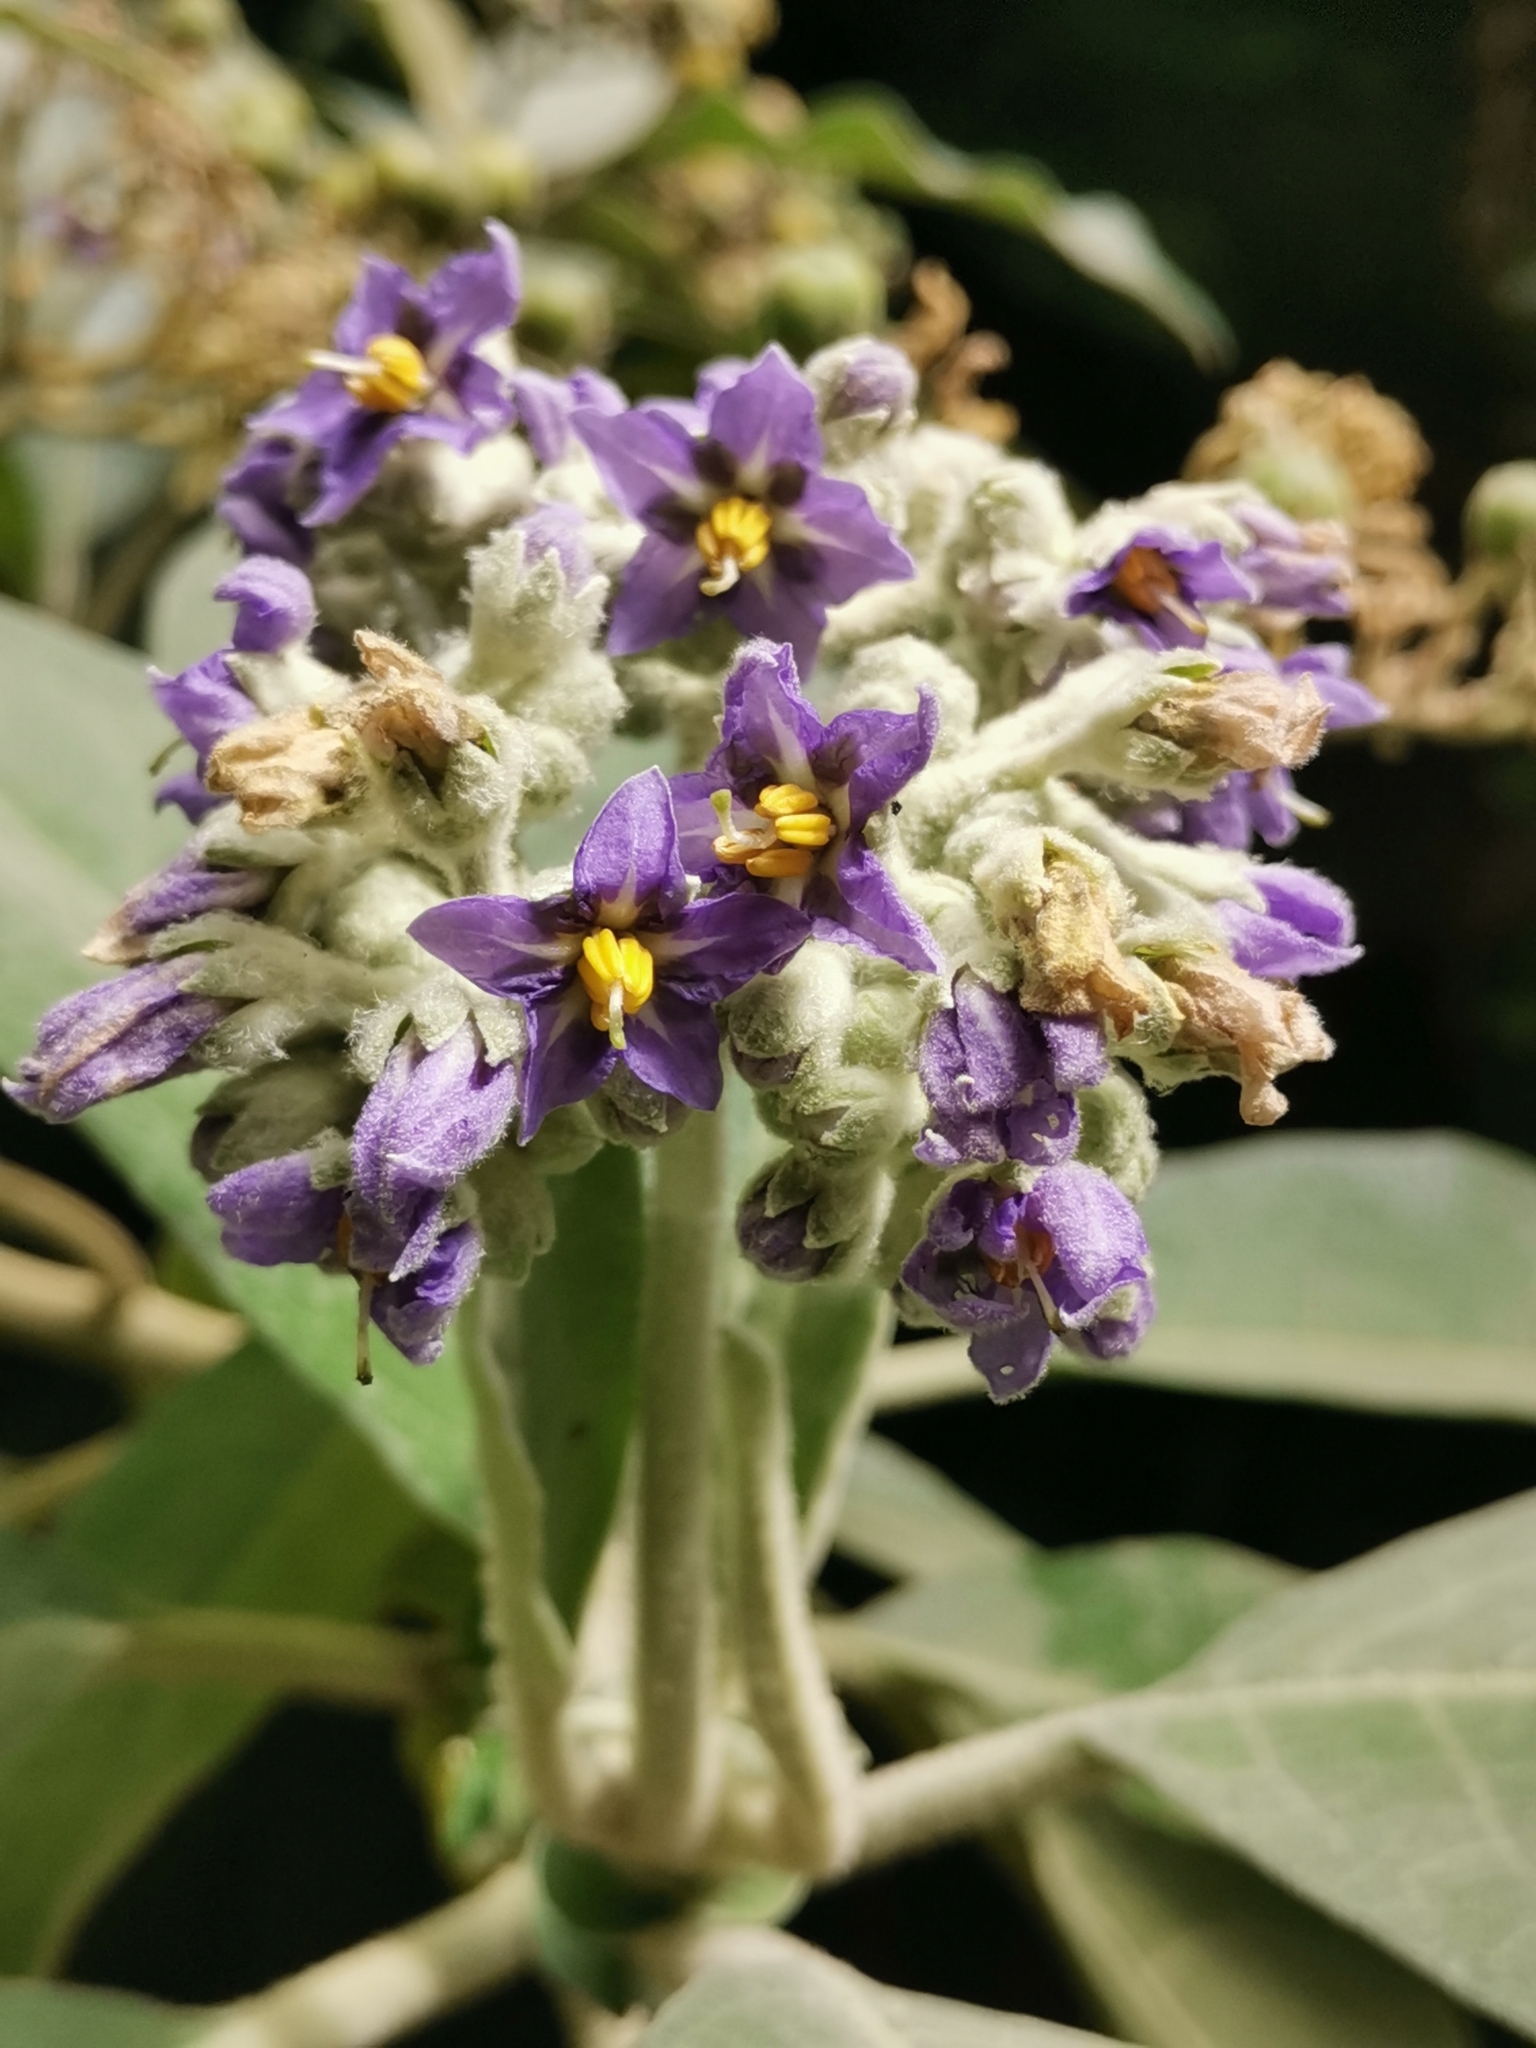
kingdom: Plantae
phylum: Tracheophyta
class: Magnoliopsida
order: Solanales
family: Solanaceae
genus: Solanum
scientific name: Solanum mauritianum
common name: Earleaf nightshade
